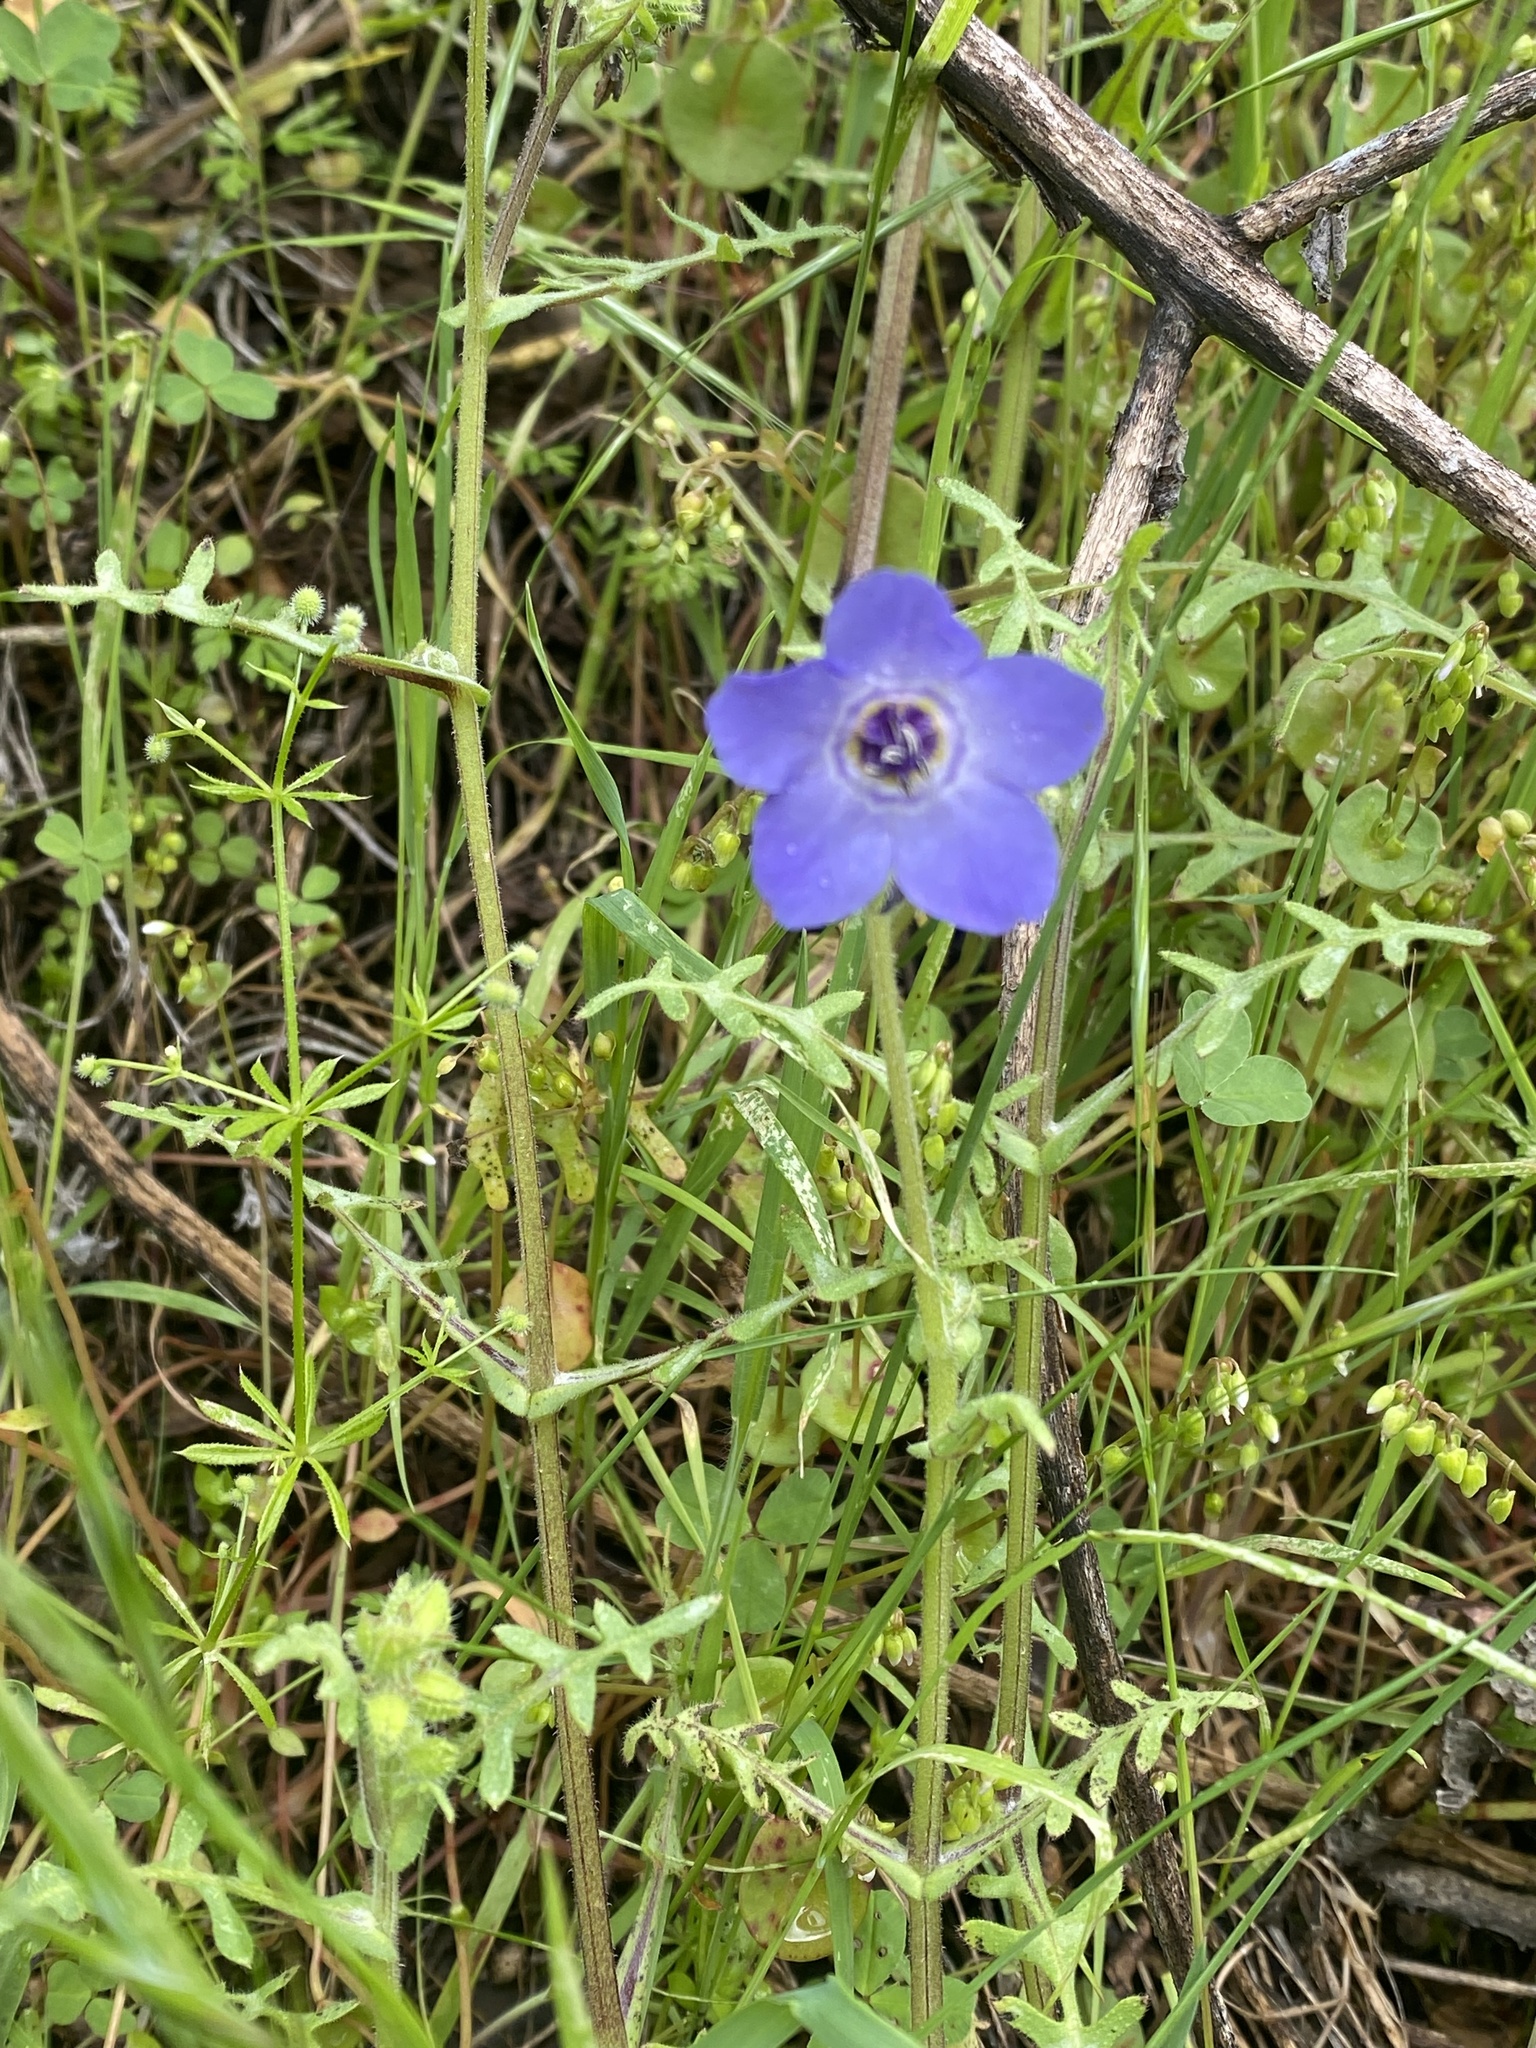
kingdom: Plantae
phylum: Tracheophyta
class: Magnoliopsida
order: Boraginales
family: Hydrophyllaceae
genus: Pholistoma
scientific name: Pholistoma auritum
